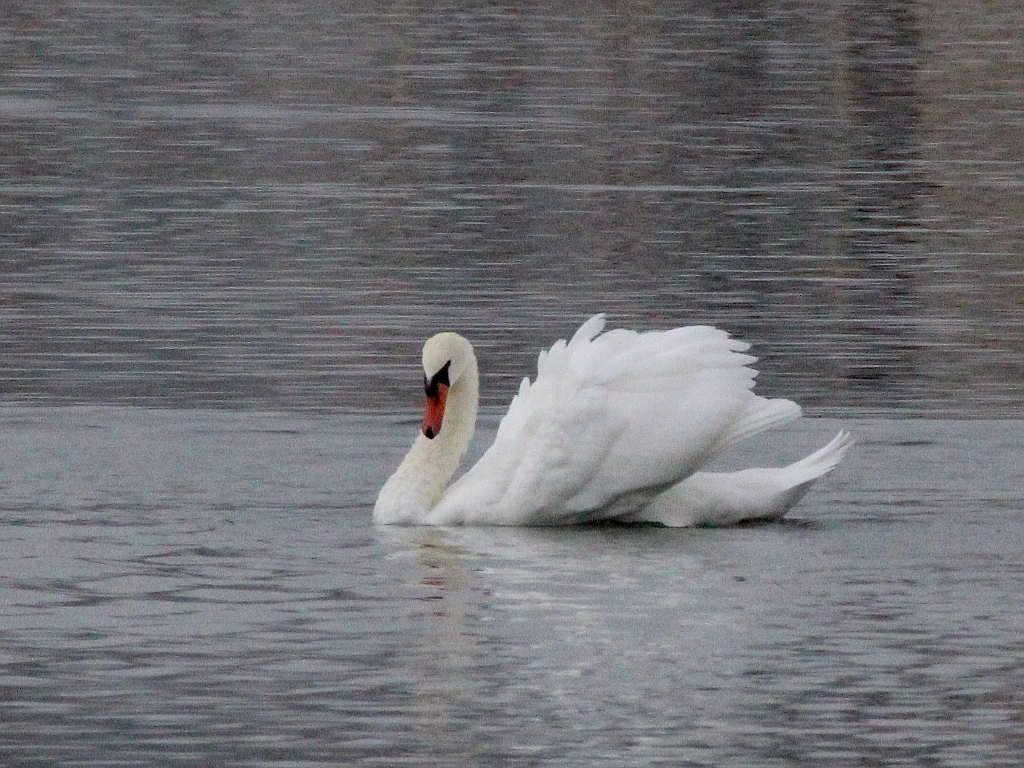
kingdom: Animalia
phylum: Chordata
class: Aves
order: Anseriformes
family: Anatidae
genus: Cygnus
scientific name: Cygnus olor
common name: Mute swan
